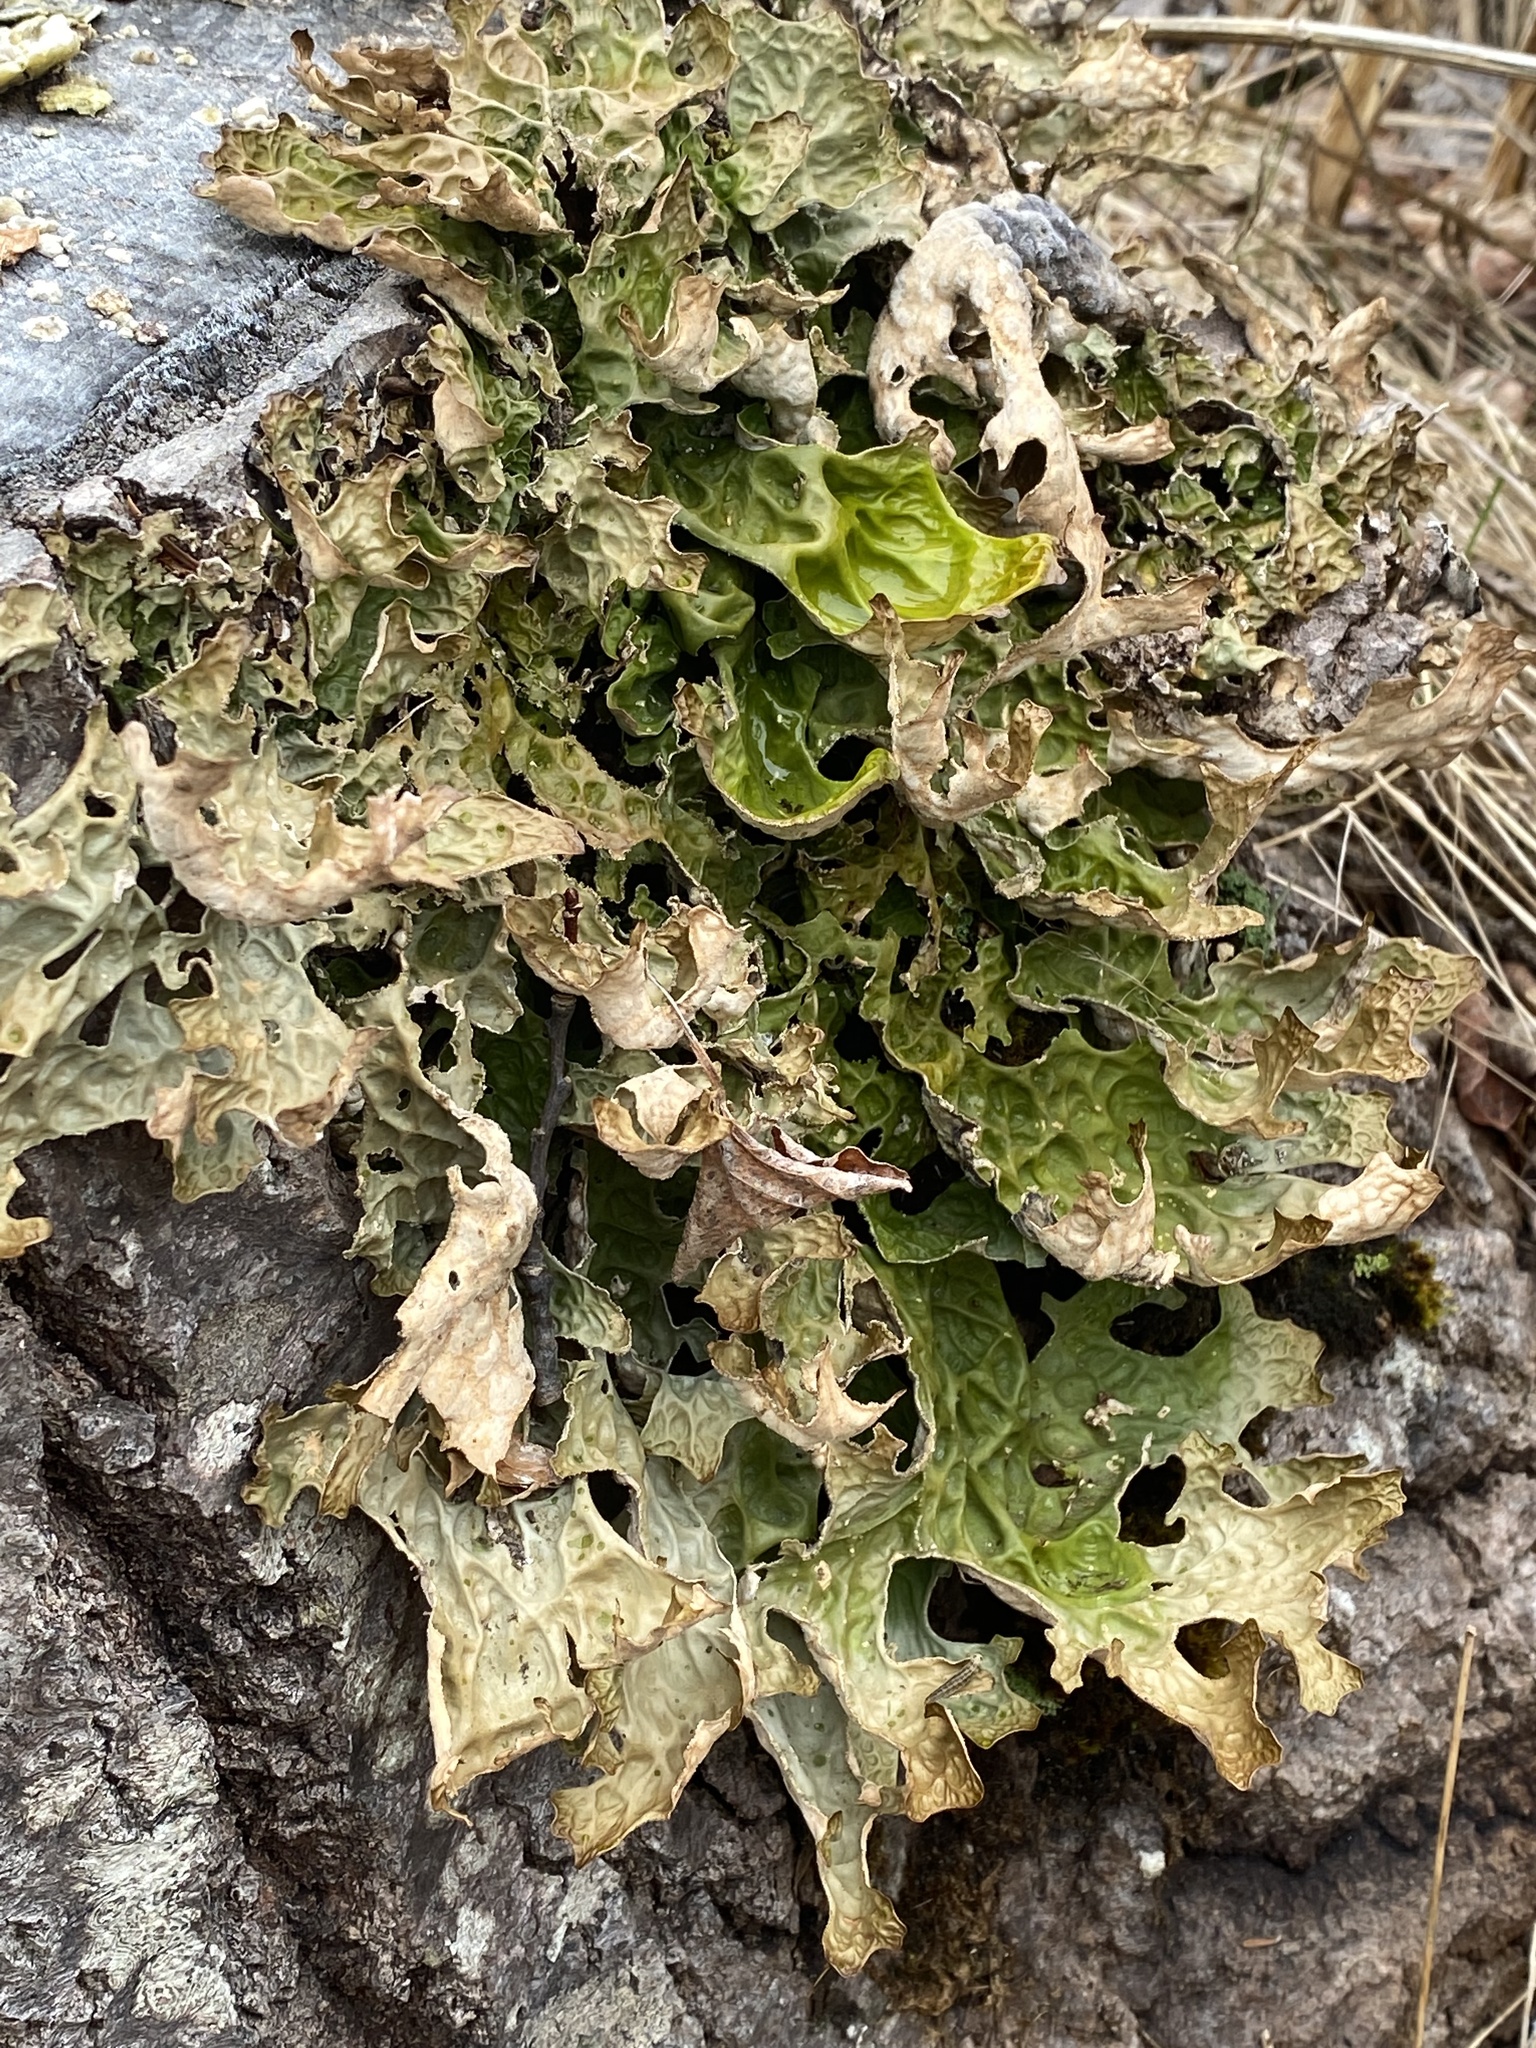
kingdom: Fungi
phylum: Ascomycota
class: Lecanoromycetes
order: Peltigerales
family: Lobariaceae
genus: Lobaria
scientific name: Lobaria pulmonaria
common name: Lungwort
